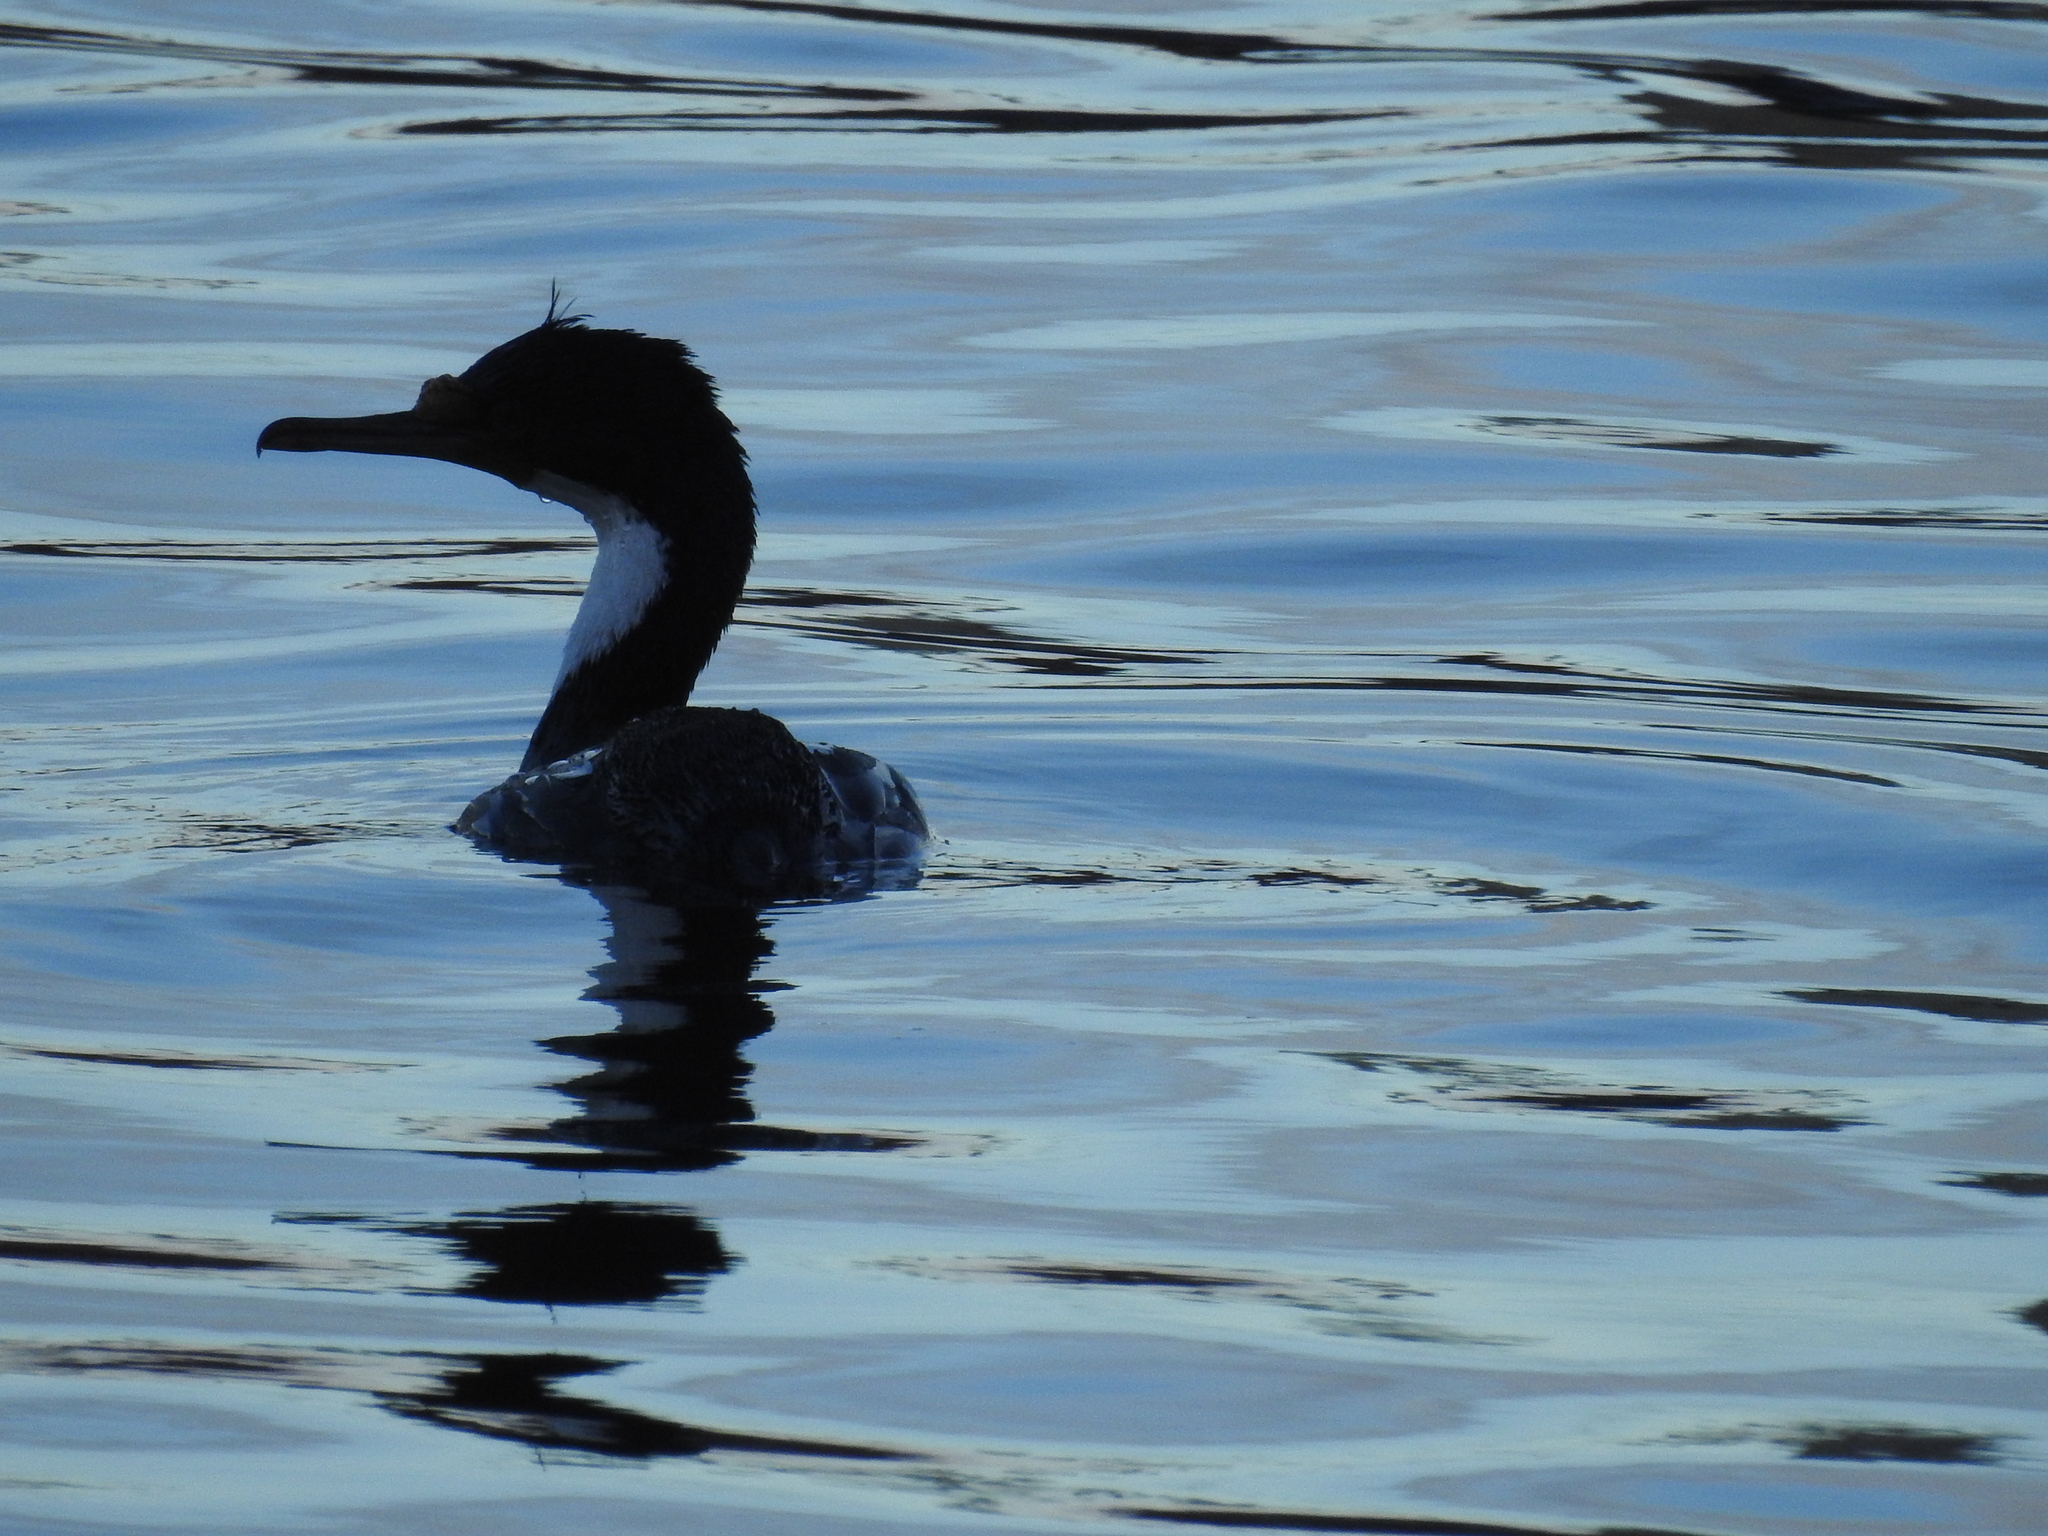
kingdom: Animalia
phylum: Chordata
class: Aves
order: Suliformes
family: Phalacrocoracidae
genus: Leucocarbo
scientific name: Leucocarbo atriceps
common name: Imperial shag
